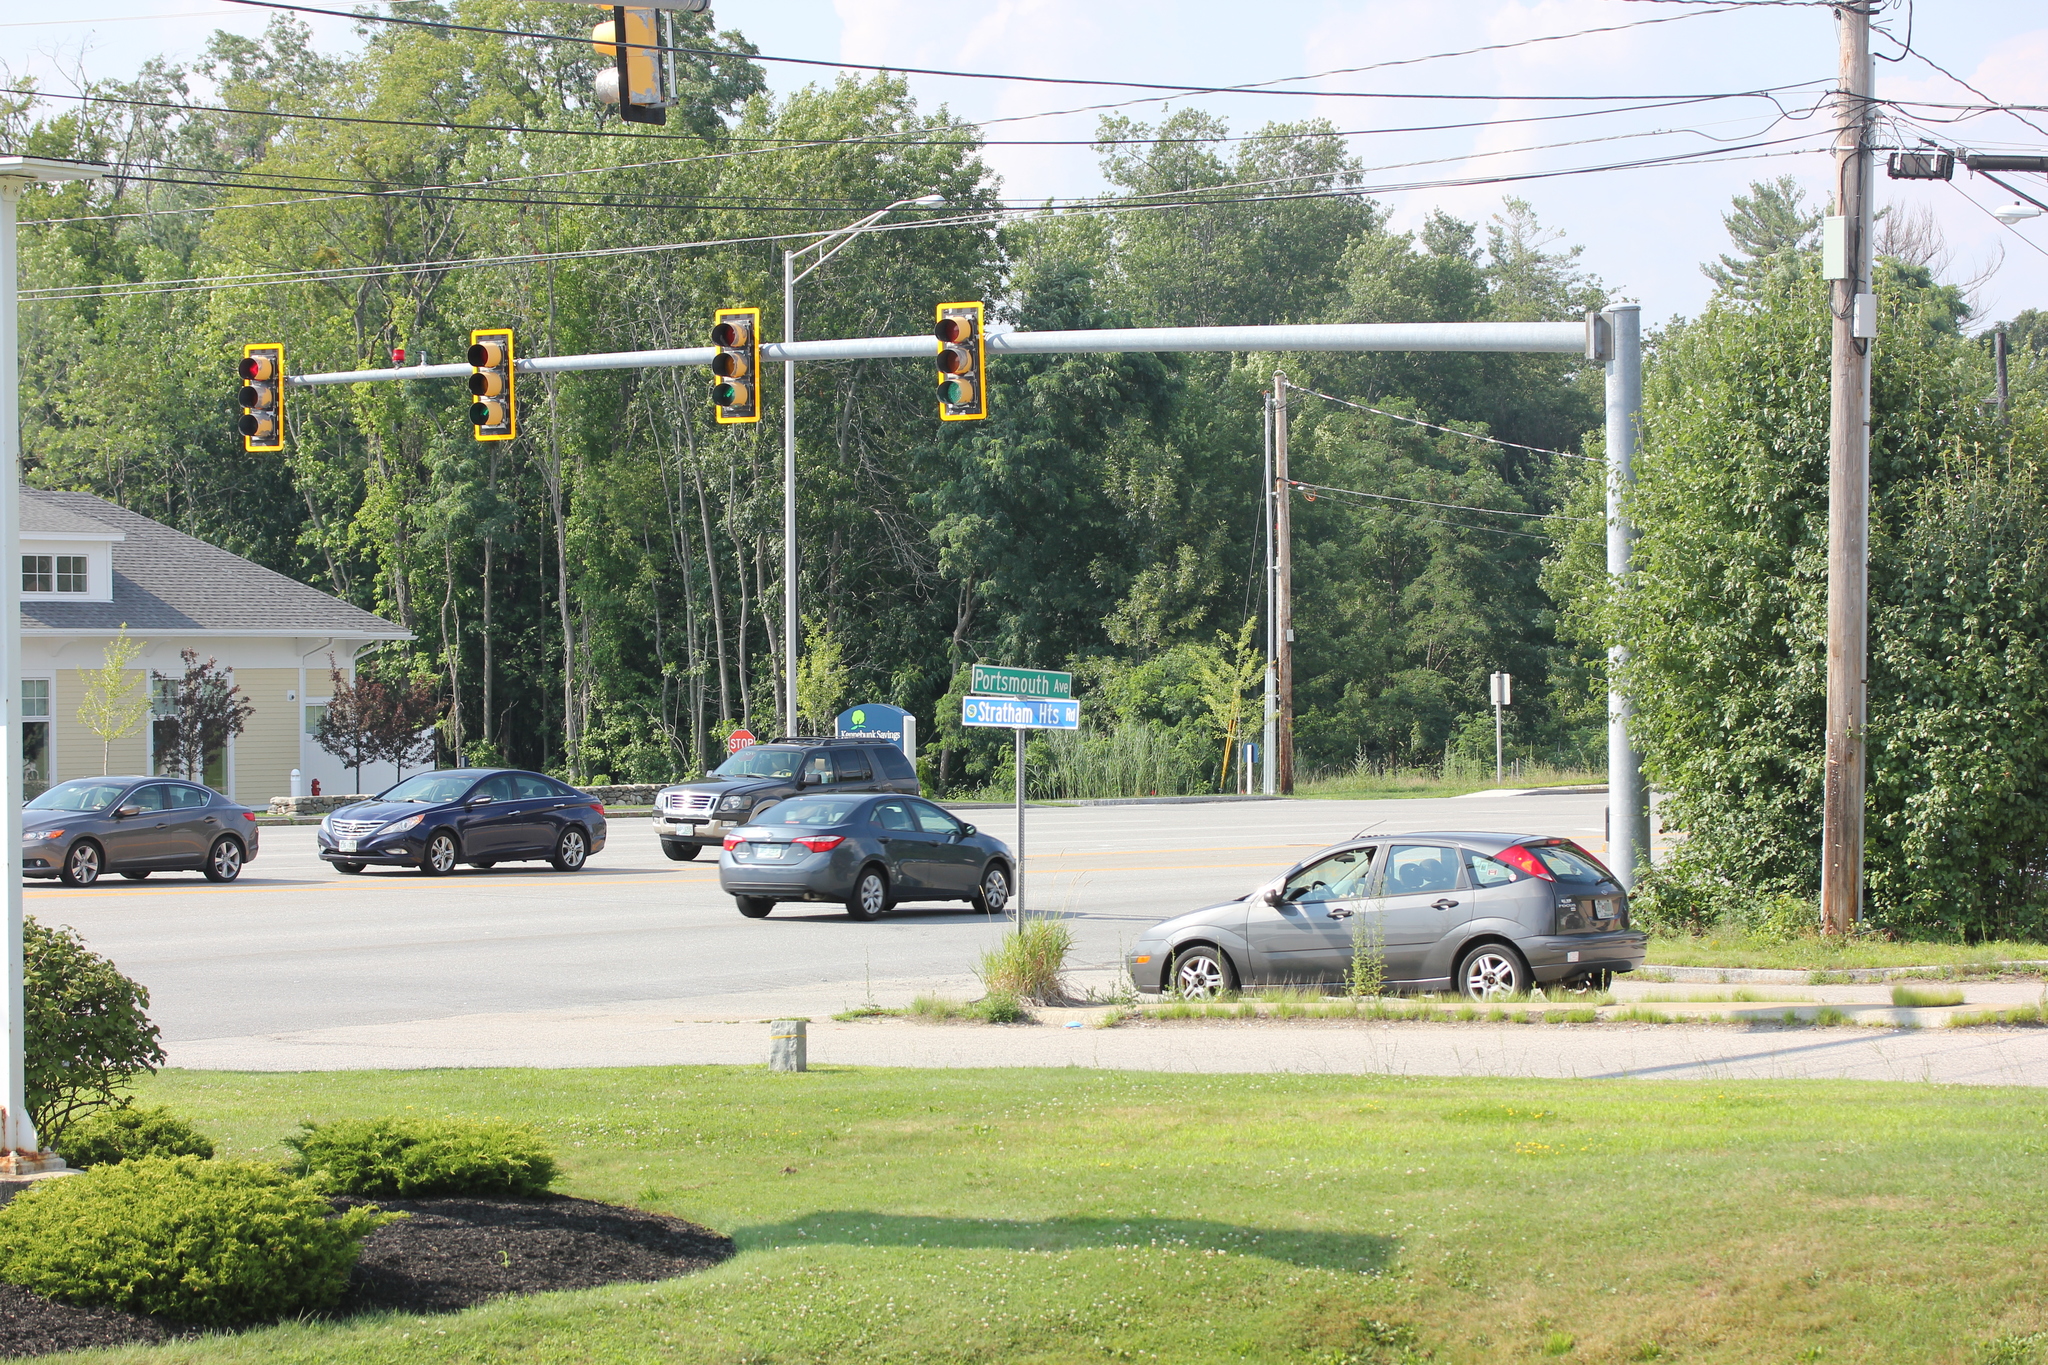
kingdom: Plantae
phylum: Tracheophyta
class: Magnoliopsida
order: Fabales
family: Fabaceae
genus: Trifolium
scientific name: Trifolium repens
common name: White clover
